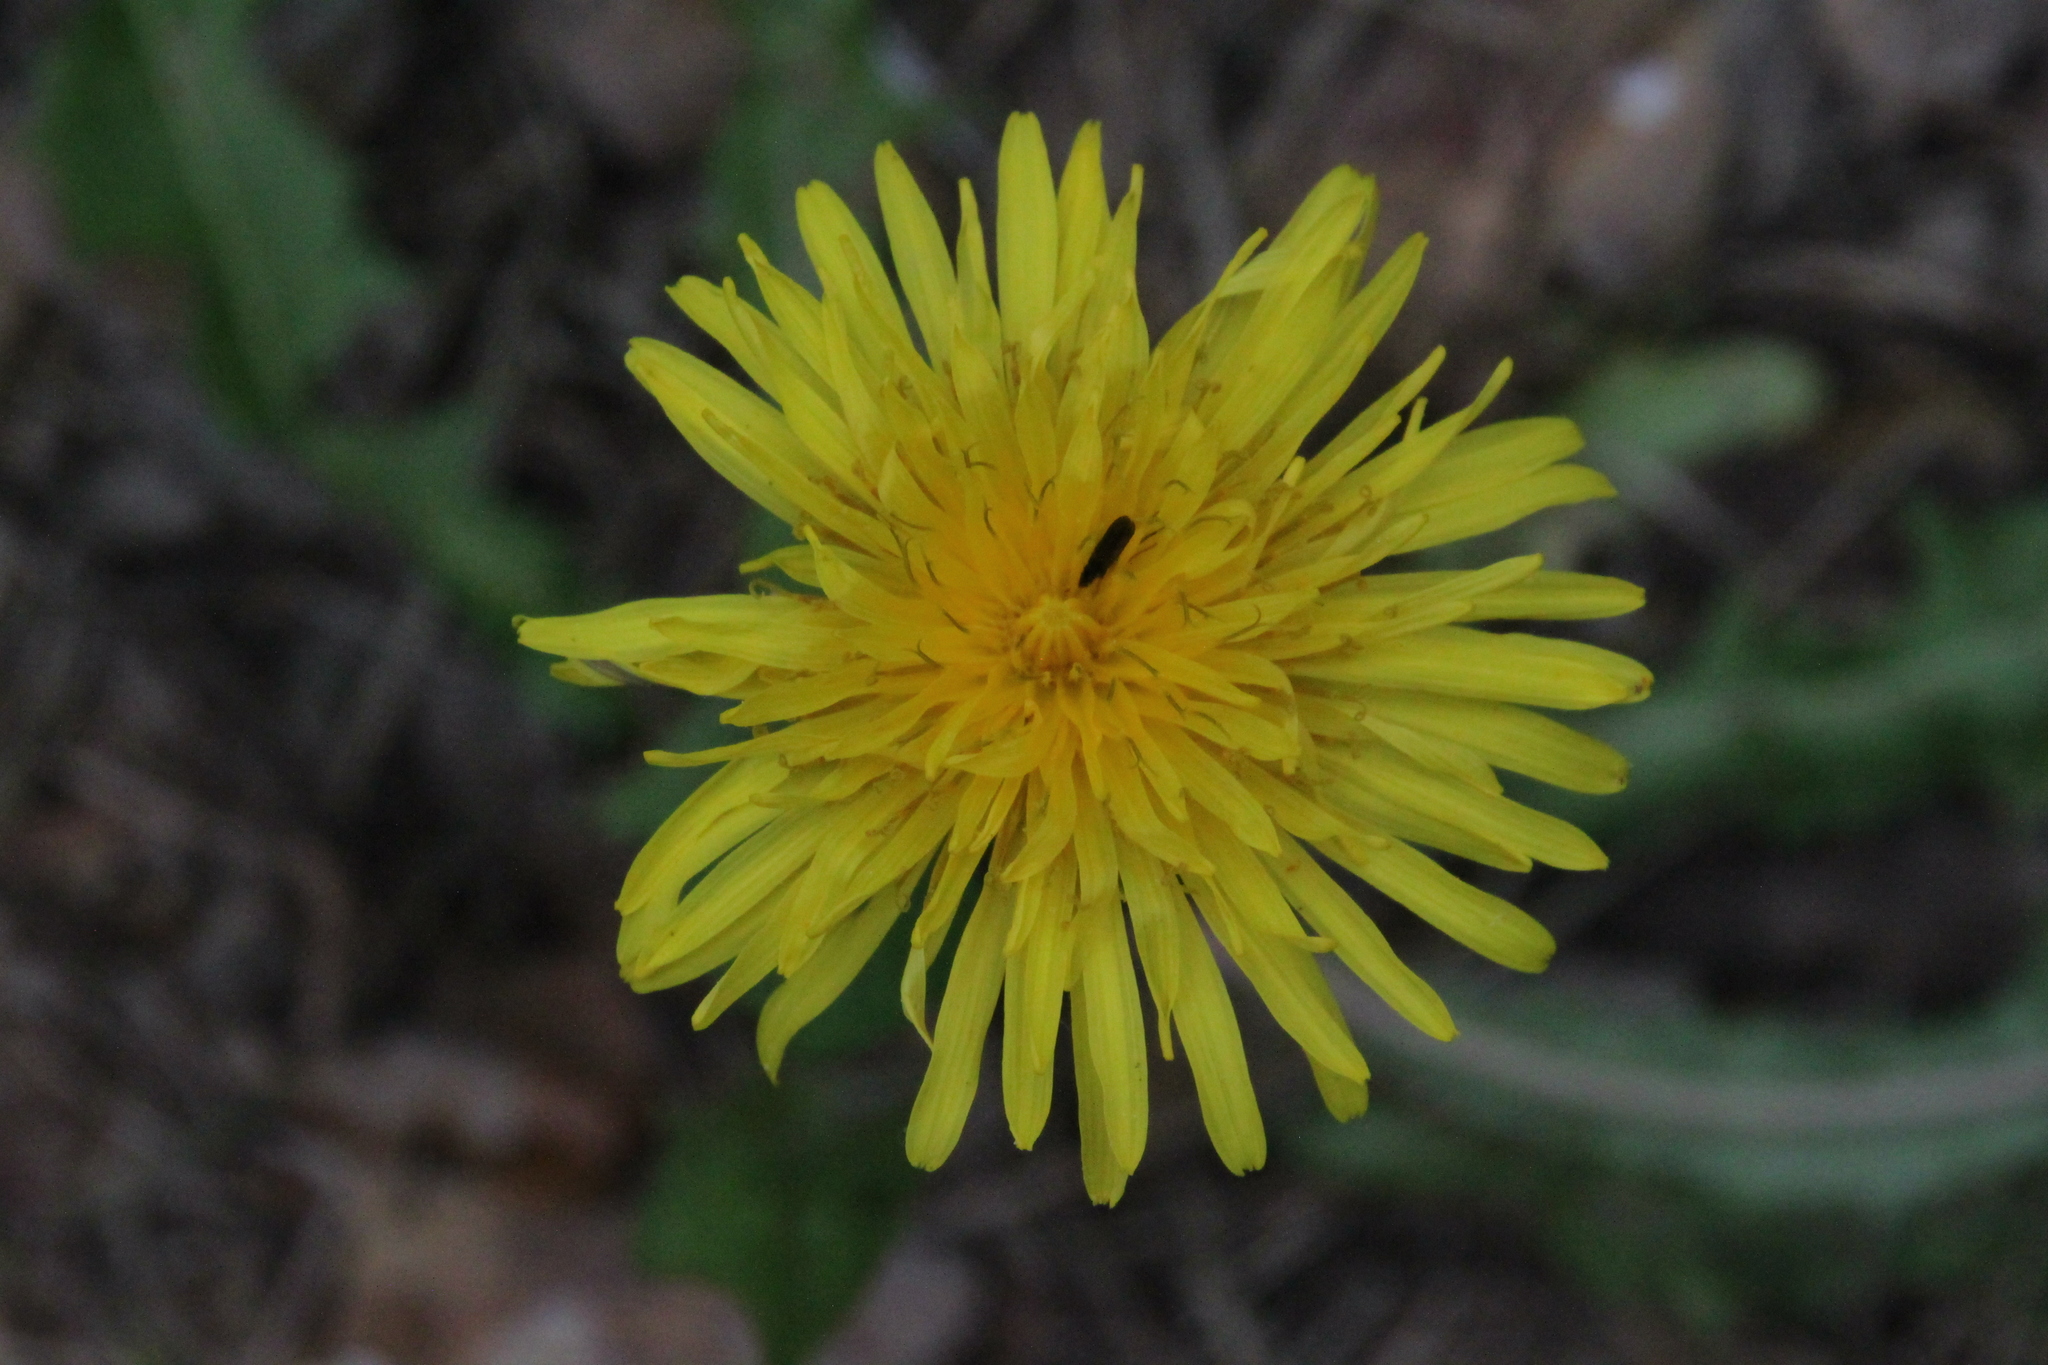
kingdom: Plantae
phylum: Tracheophyta
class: Magnoliopsida
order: Asterales
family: Asteraceae
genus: Taraxacum
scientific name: Taraxacum officinale
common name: Common dandelion
